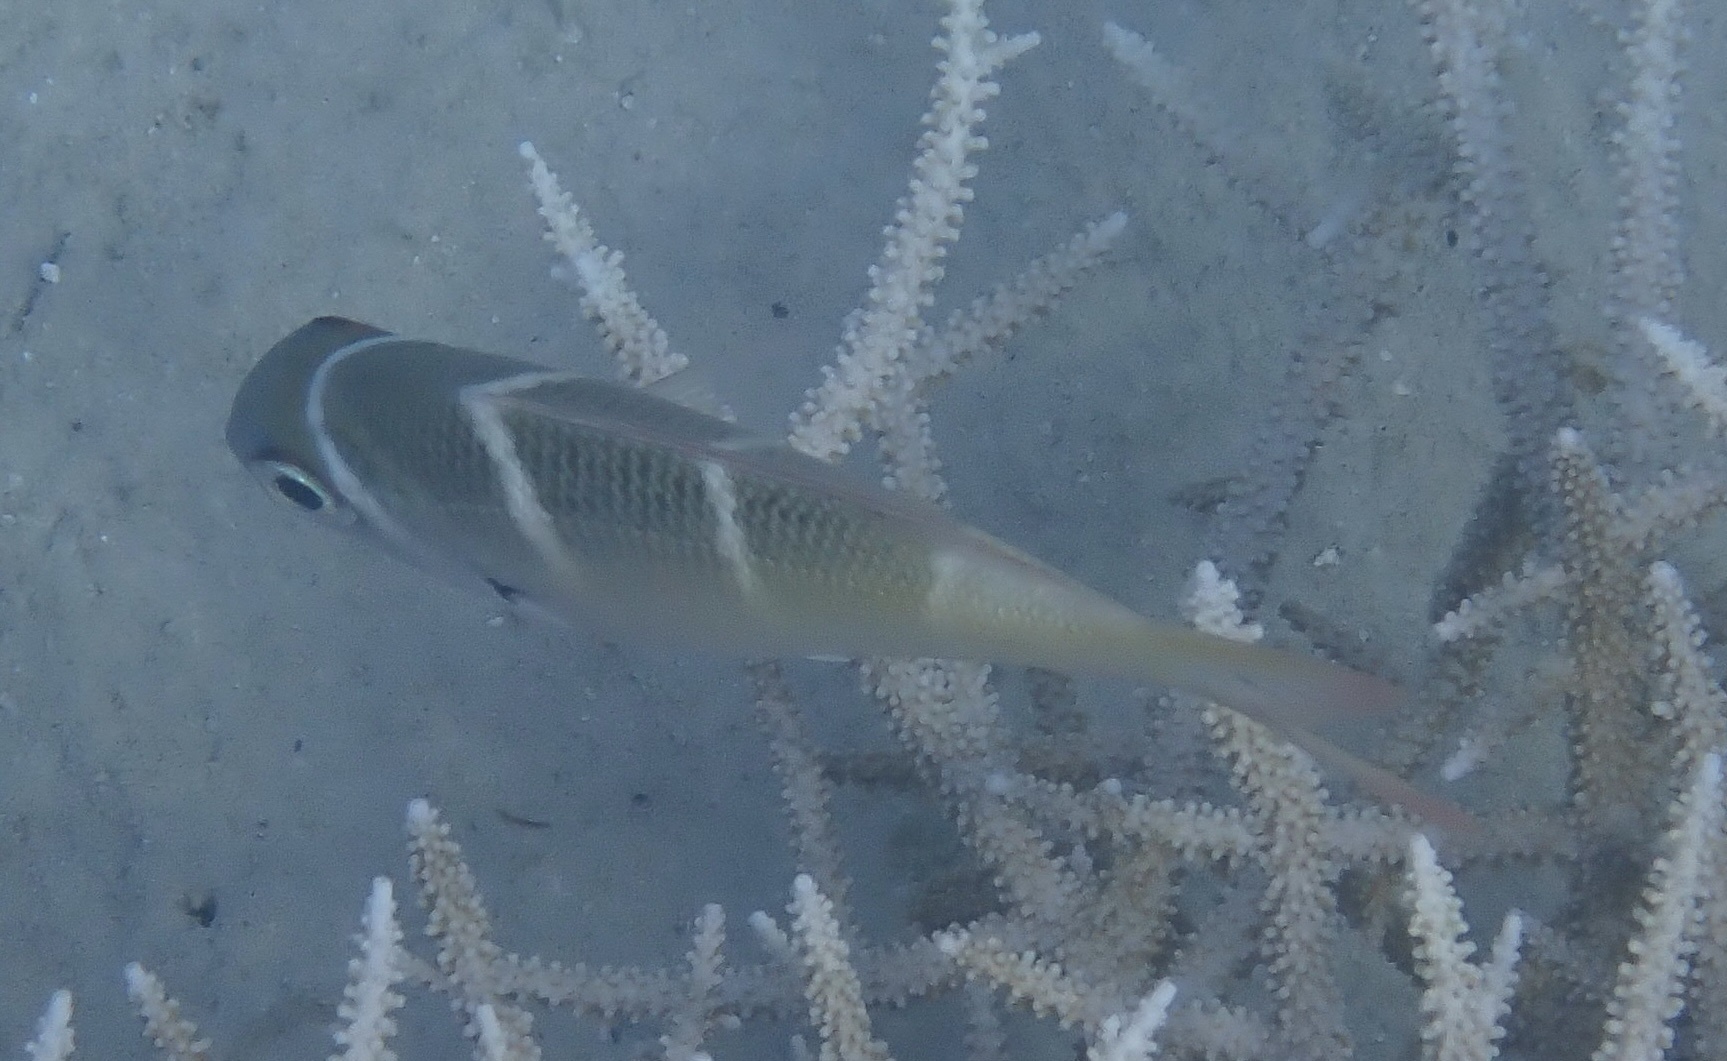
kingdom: Animalia
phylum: Chordata
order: Perciformes
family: Lethrinidae
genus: Monotaxis
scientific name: Monotaxis heterodon
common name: Redfin emperor
